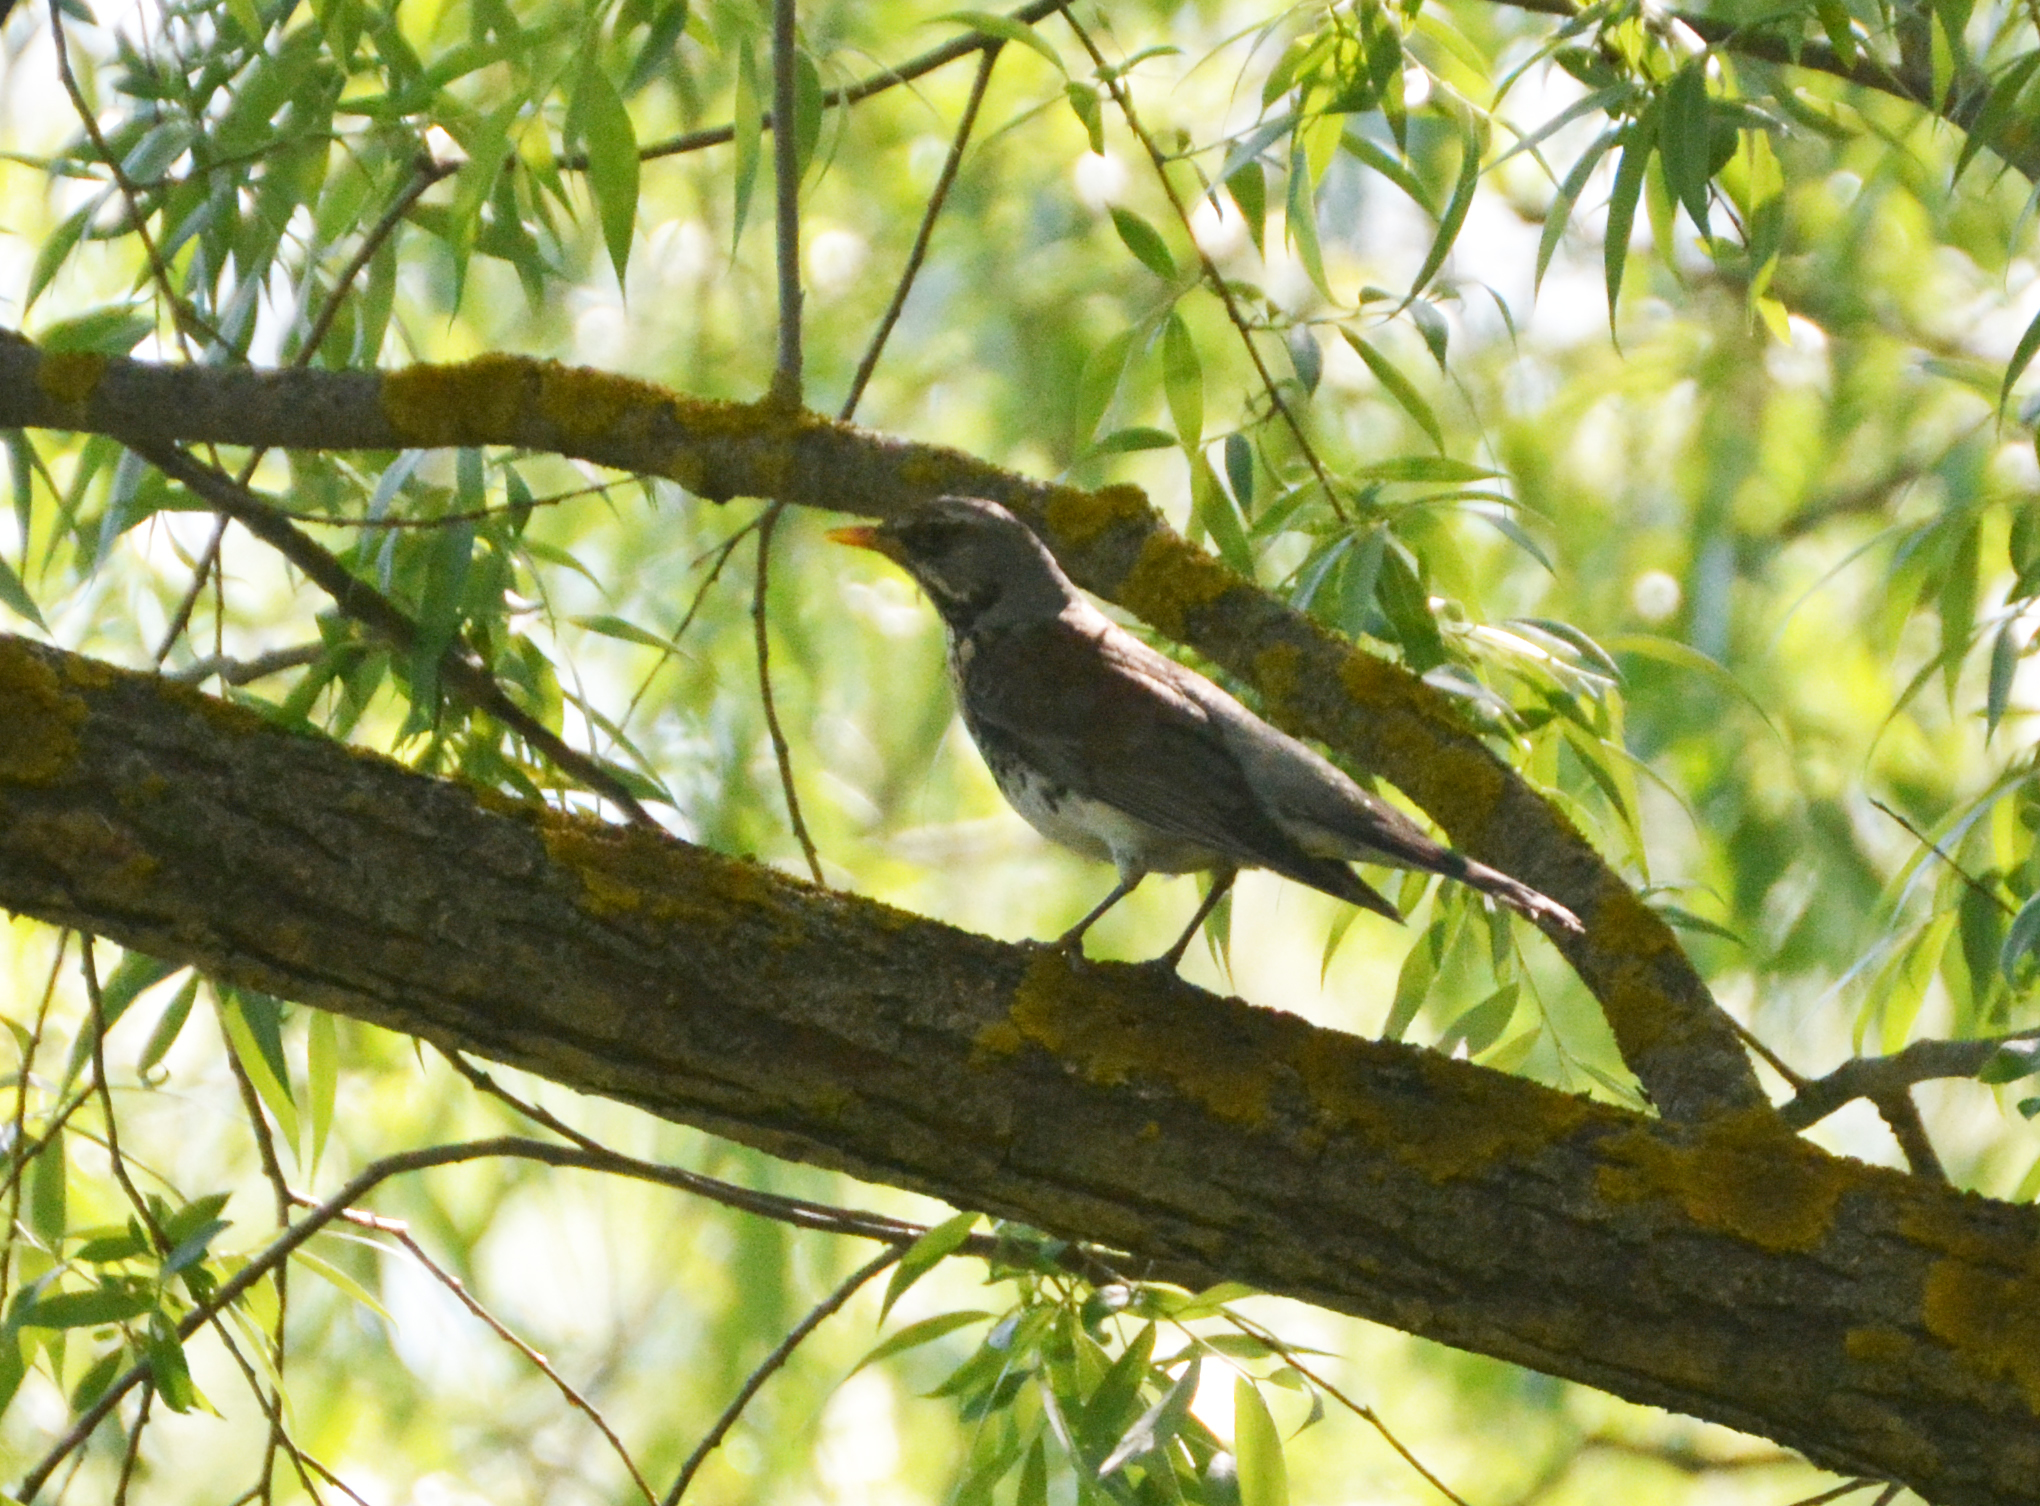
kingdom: Animalia
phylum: Chordata
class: Aves
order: Passeriformes
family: Turdidae
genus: Turdus
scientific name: Turdus pilaris
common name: Fieldfare
